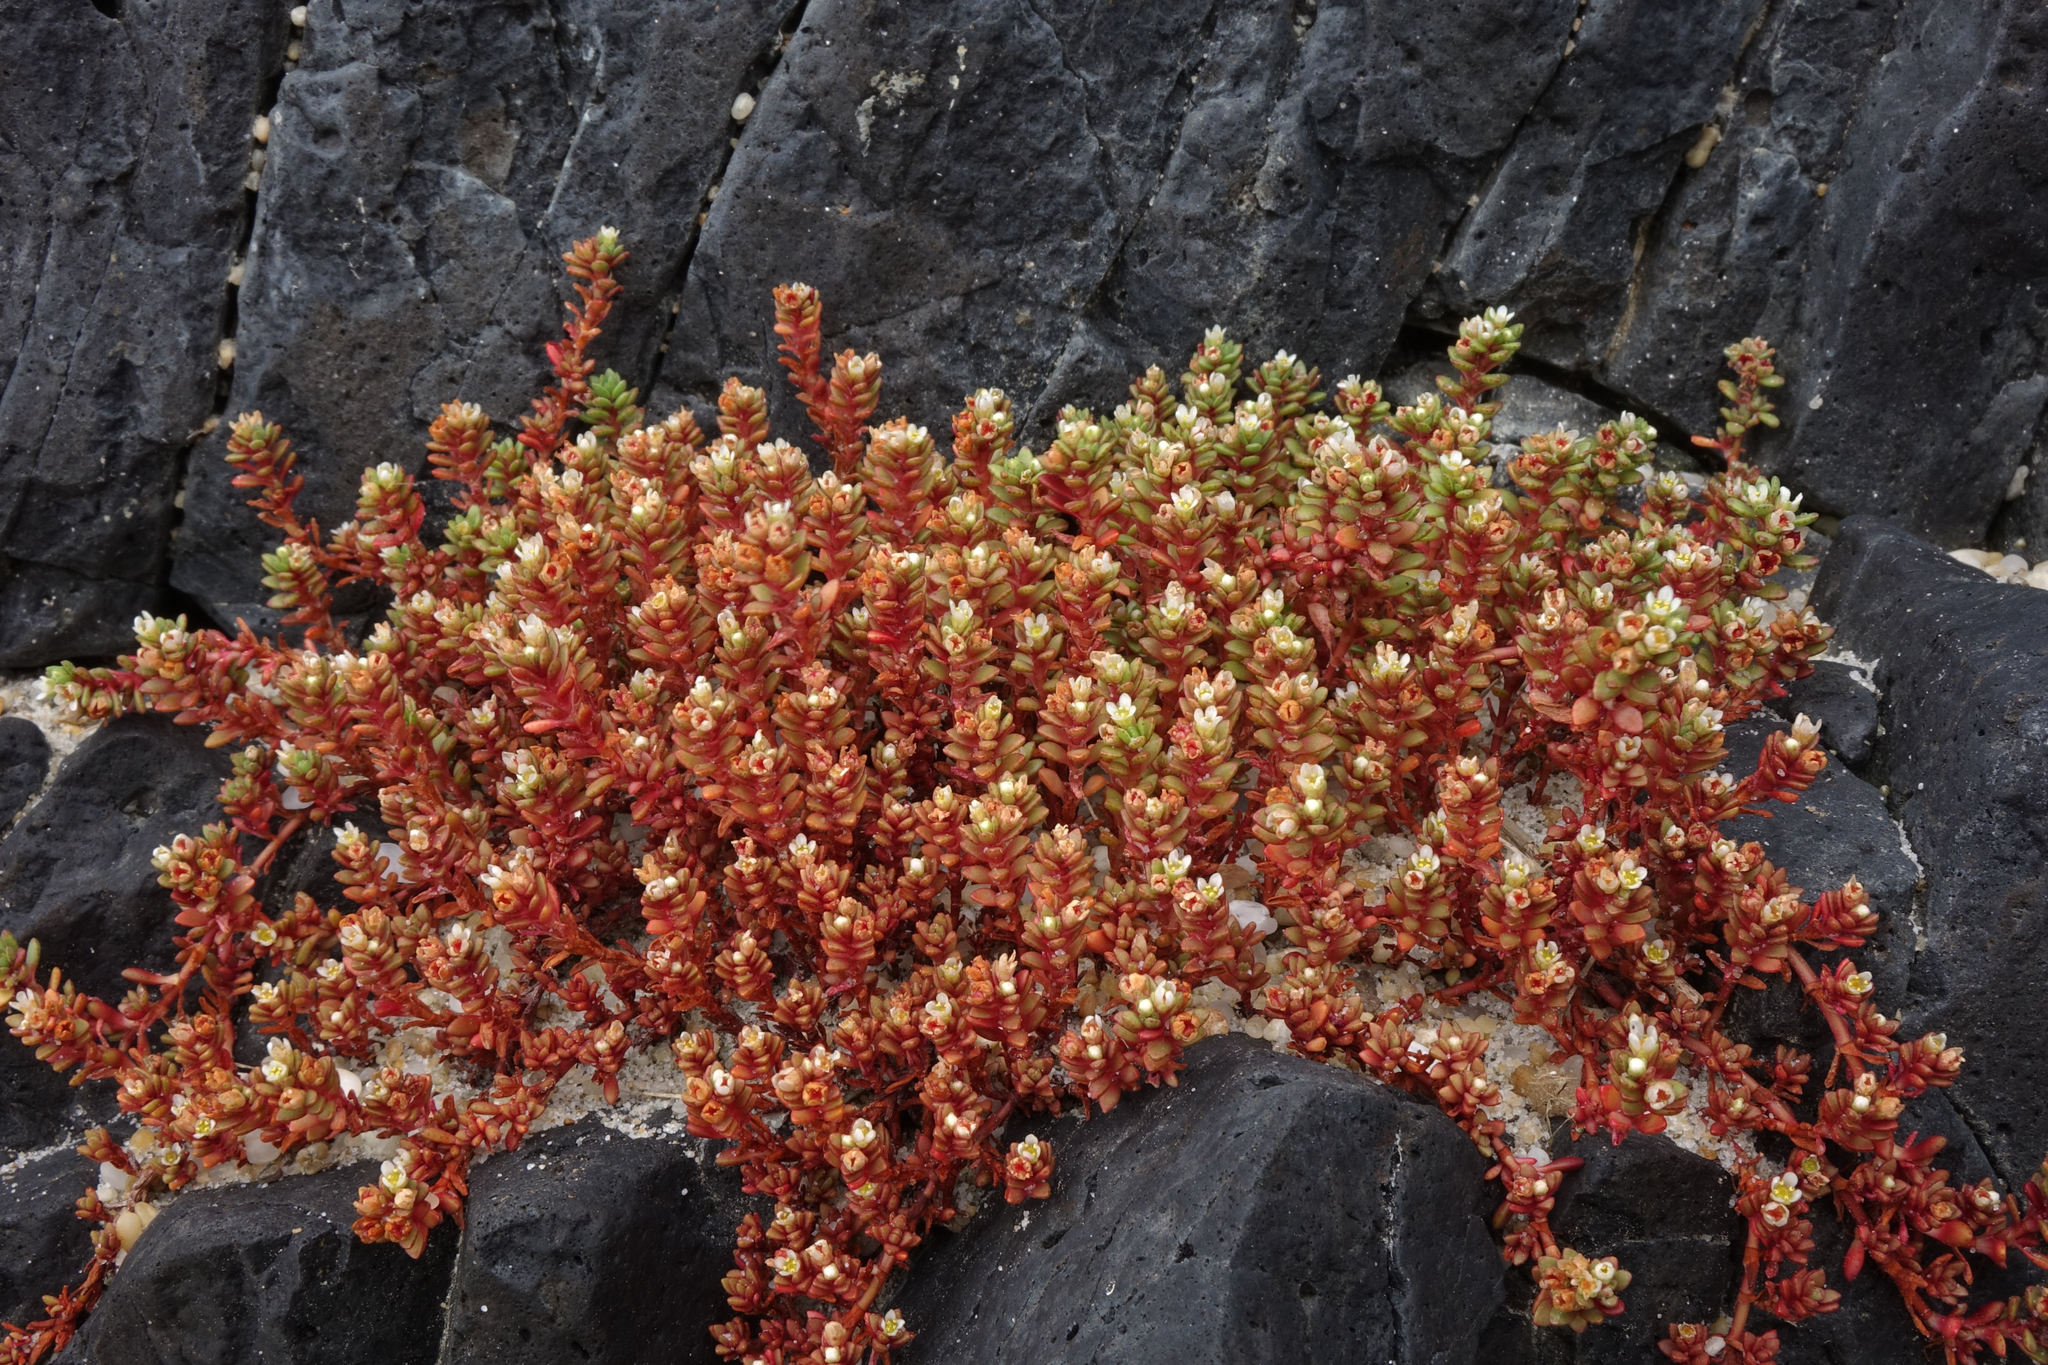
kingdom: Plantae
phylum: Tracheophyta
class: Magnoliopsida
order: Saxifragales
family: Crassulaceae
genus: Crassula
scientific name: Crassula moschata
